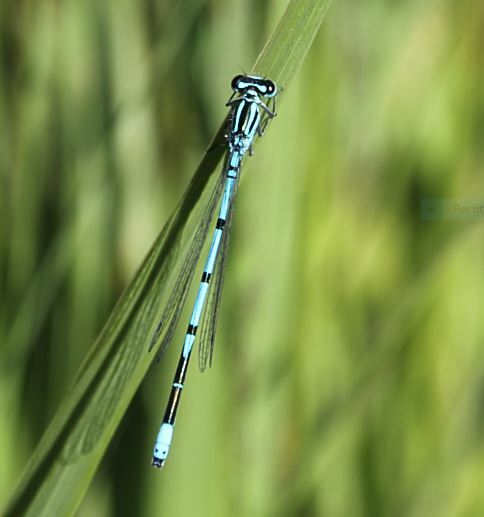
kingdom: Animalia
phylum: Arthropoda
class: Insecta
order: Odonata
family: Coenagrionidae
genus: Coenagrion
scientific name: Coenagrion puella
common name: Azure damselfly
